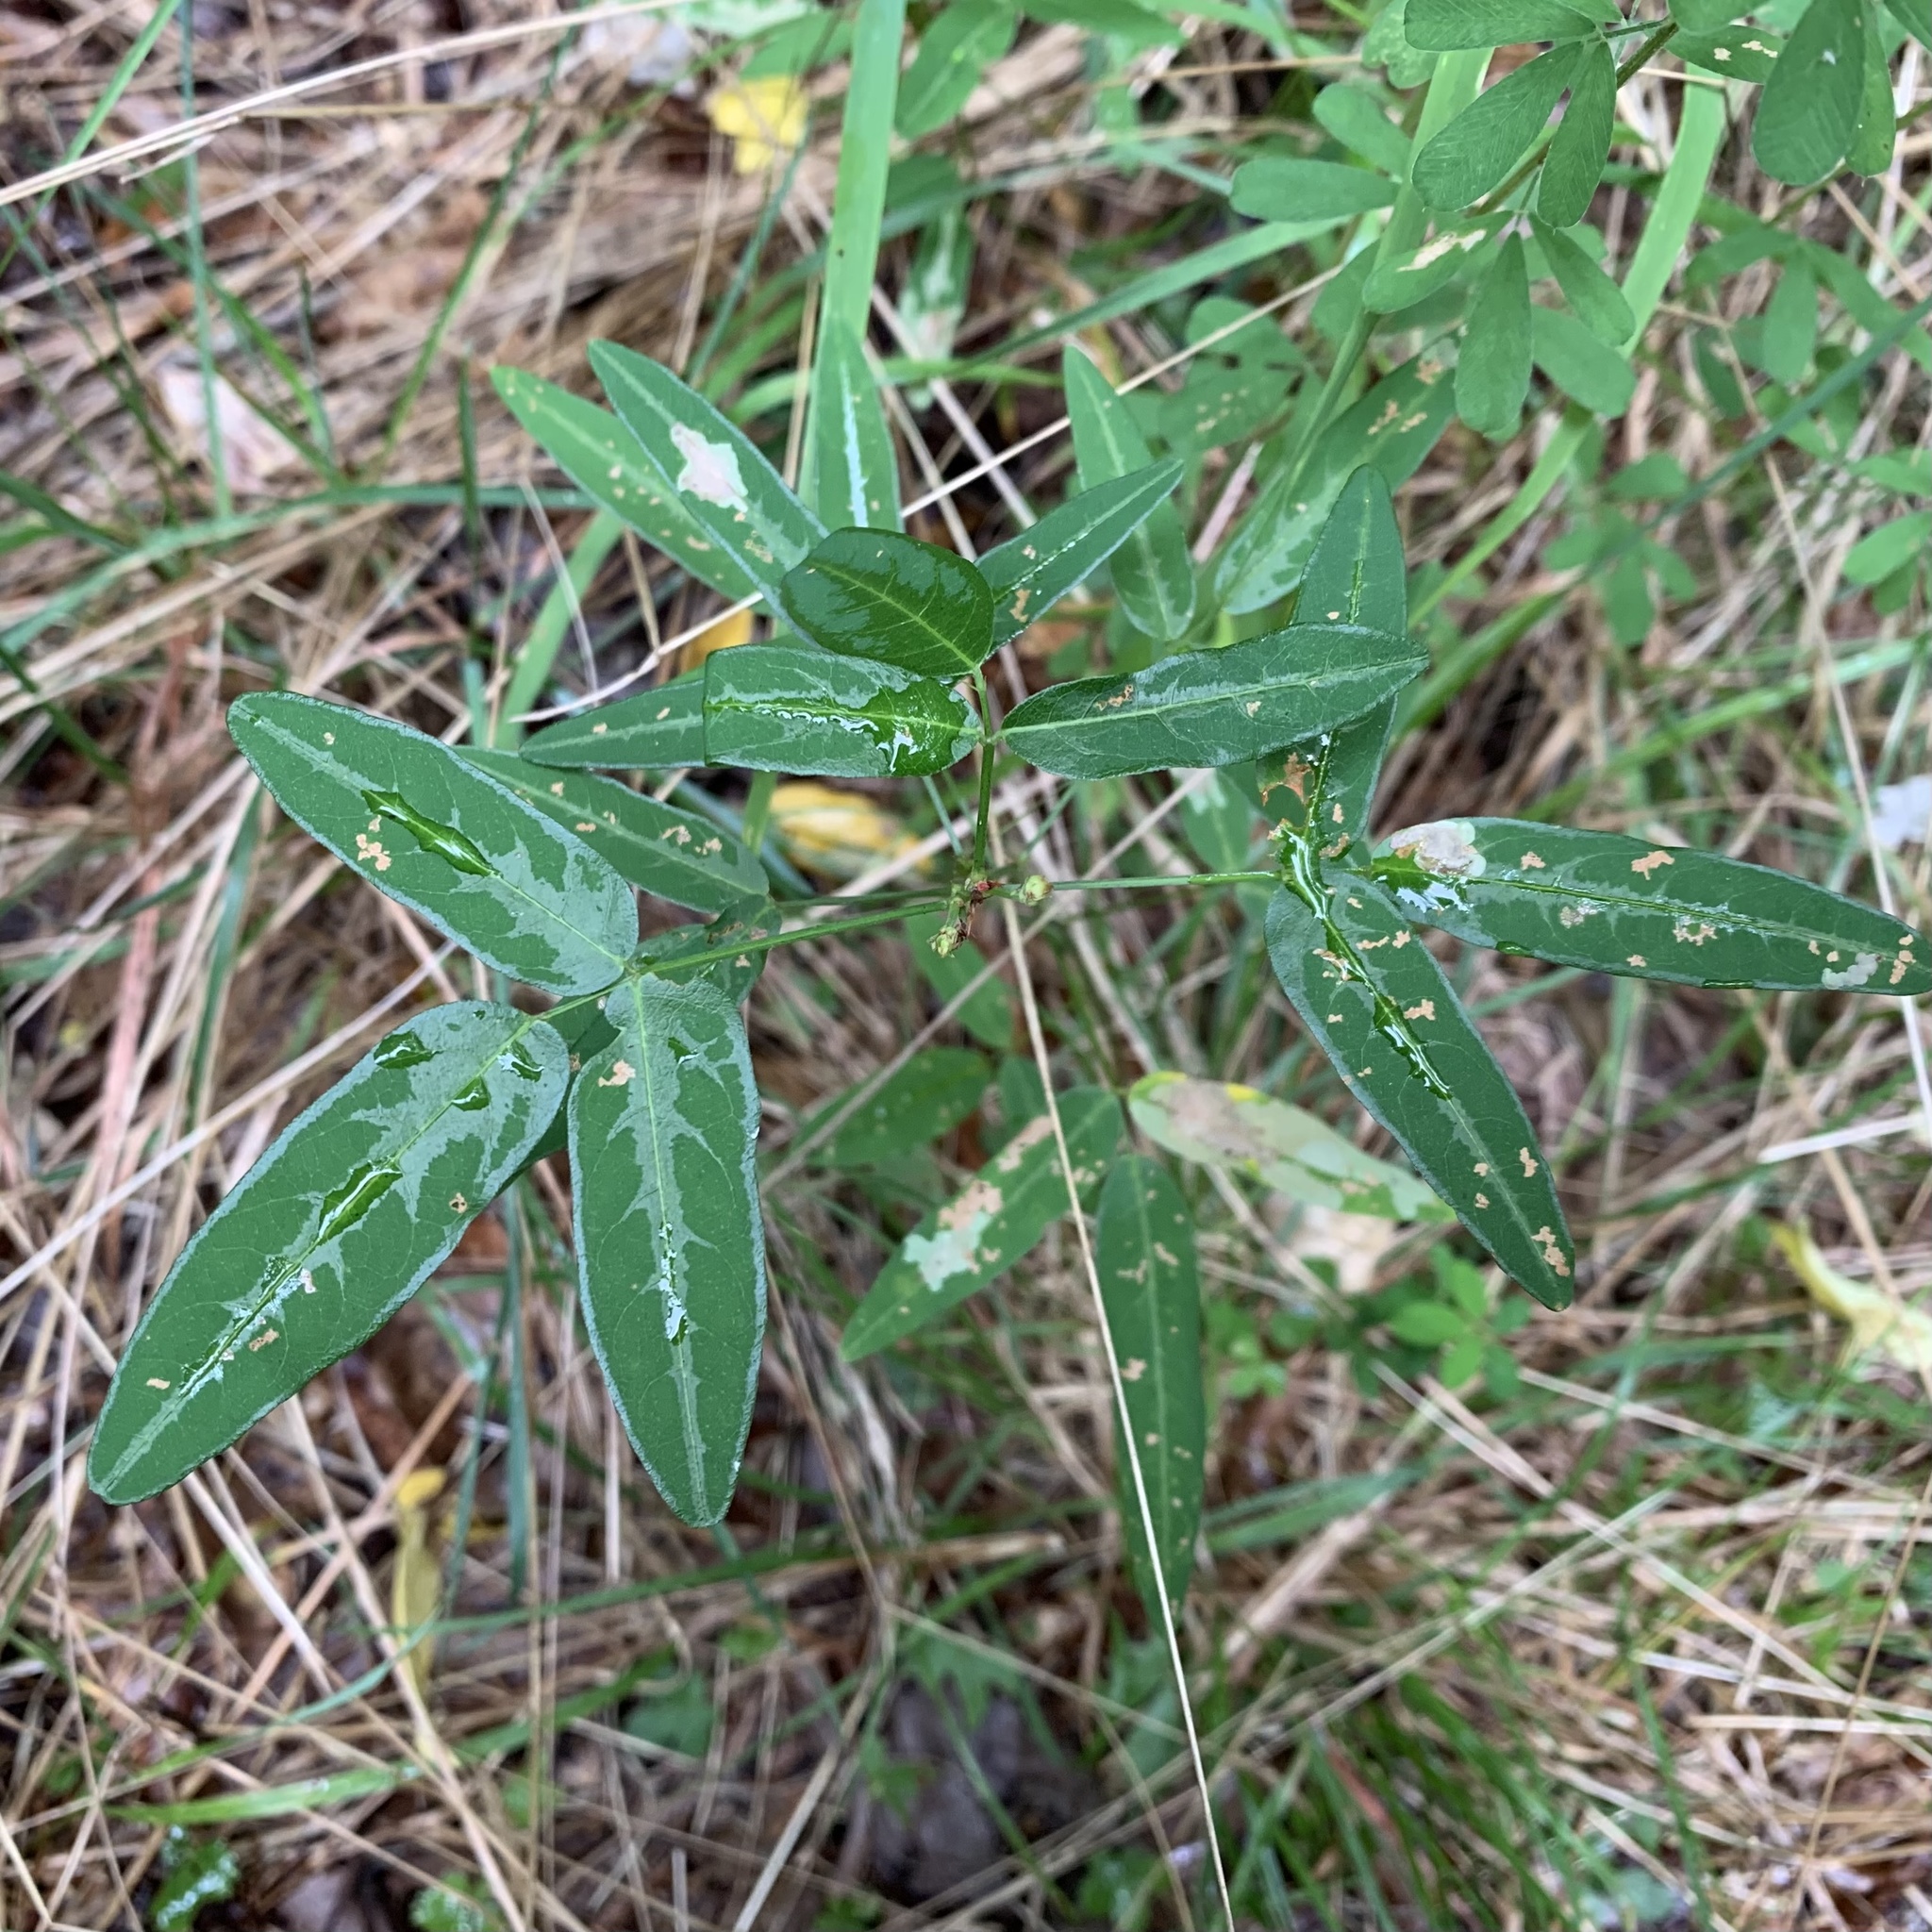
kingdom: Plantae
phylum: Tracheophyta
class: Magnoliopsida
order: Fabales
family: Fabaceae
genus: Desmodium
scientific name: Desmodium paniculatum
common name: Panicled tick-clover
